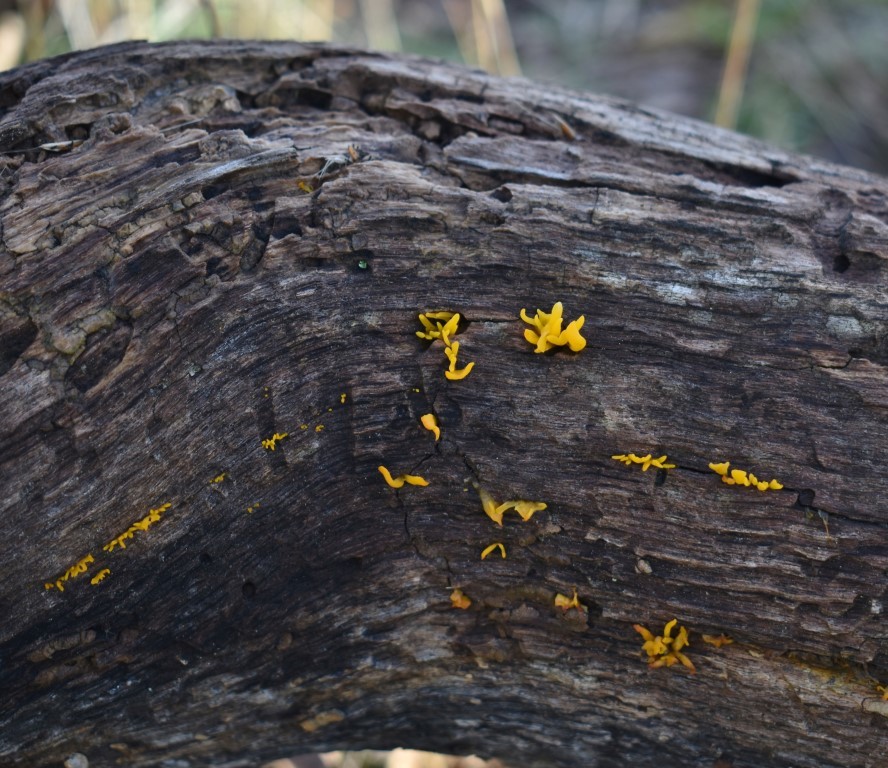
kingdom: Fungi
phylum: Basidiomycota
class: Dacrymycetes
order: Dacrymycetales
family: Dacrymycetaceae
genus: Calocera
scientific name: Calocera cornea
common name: Small stagshorn
